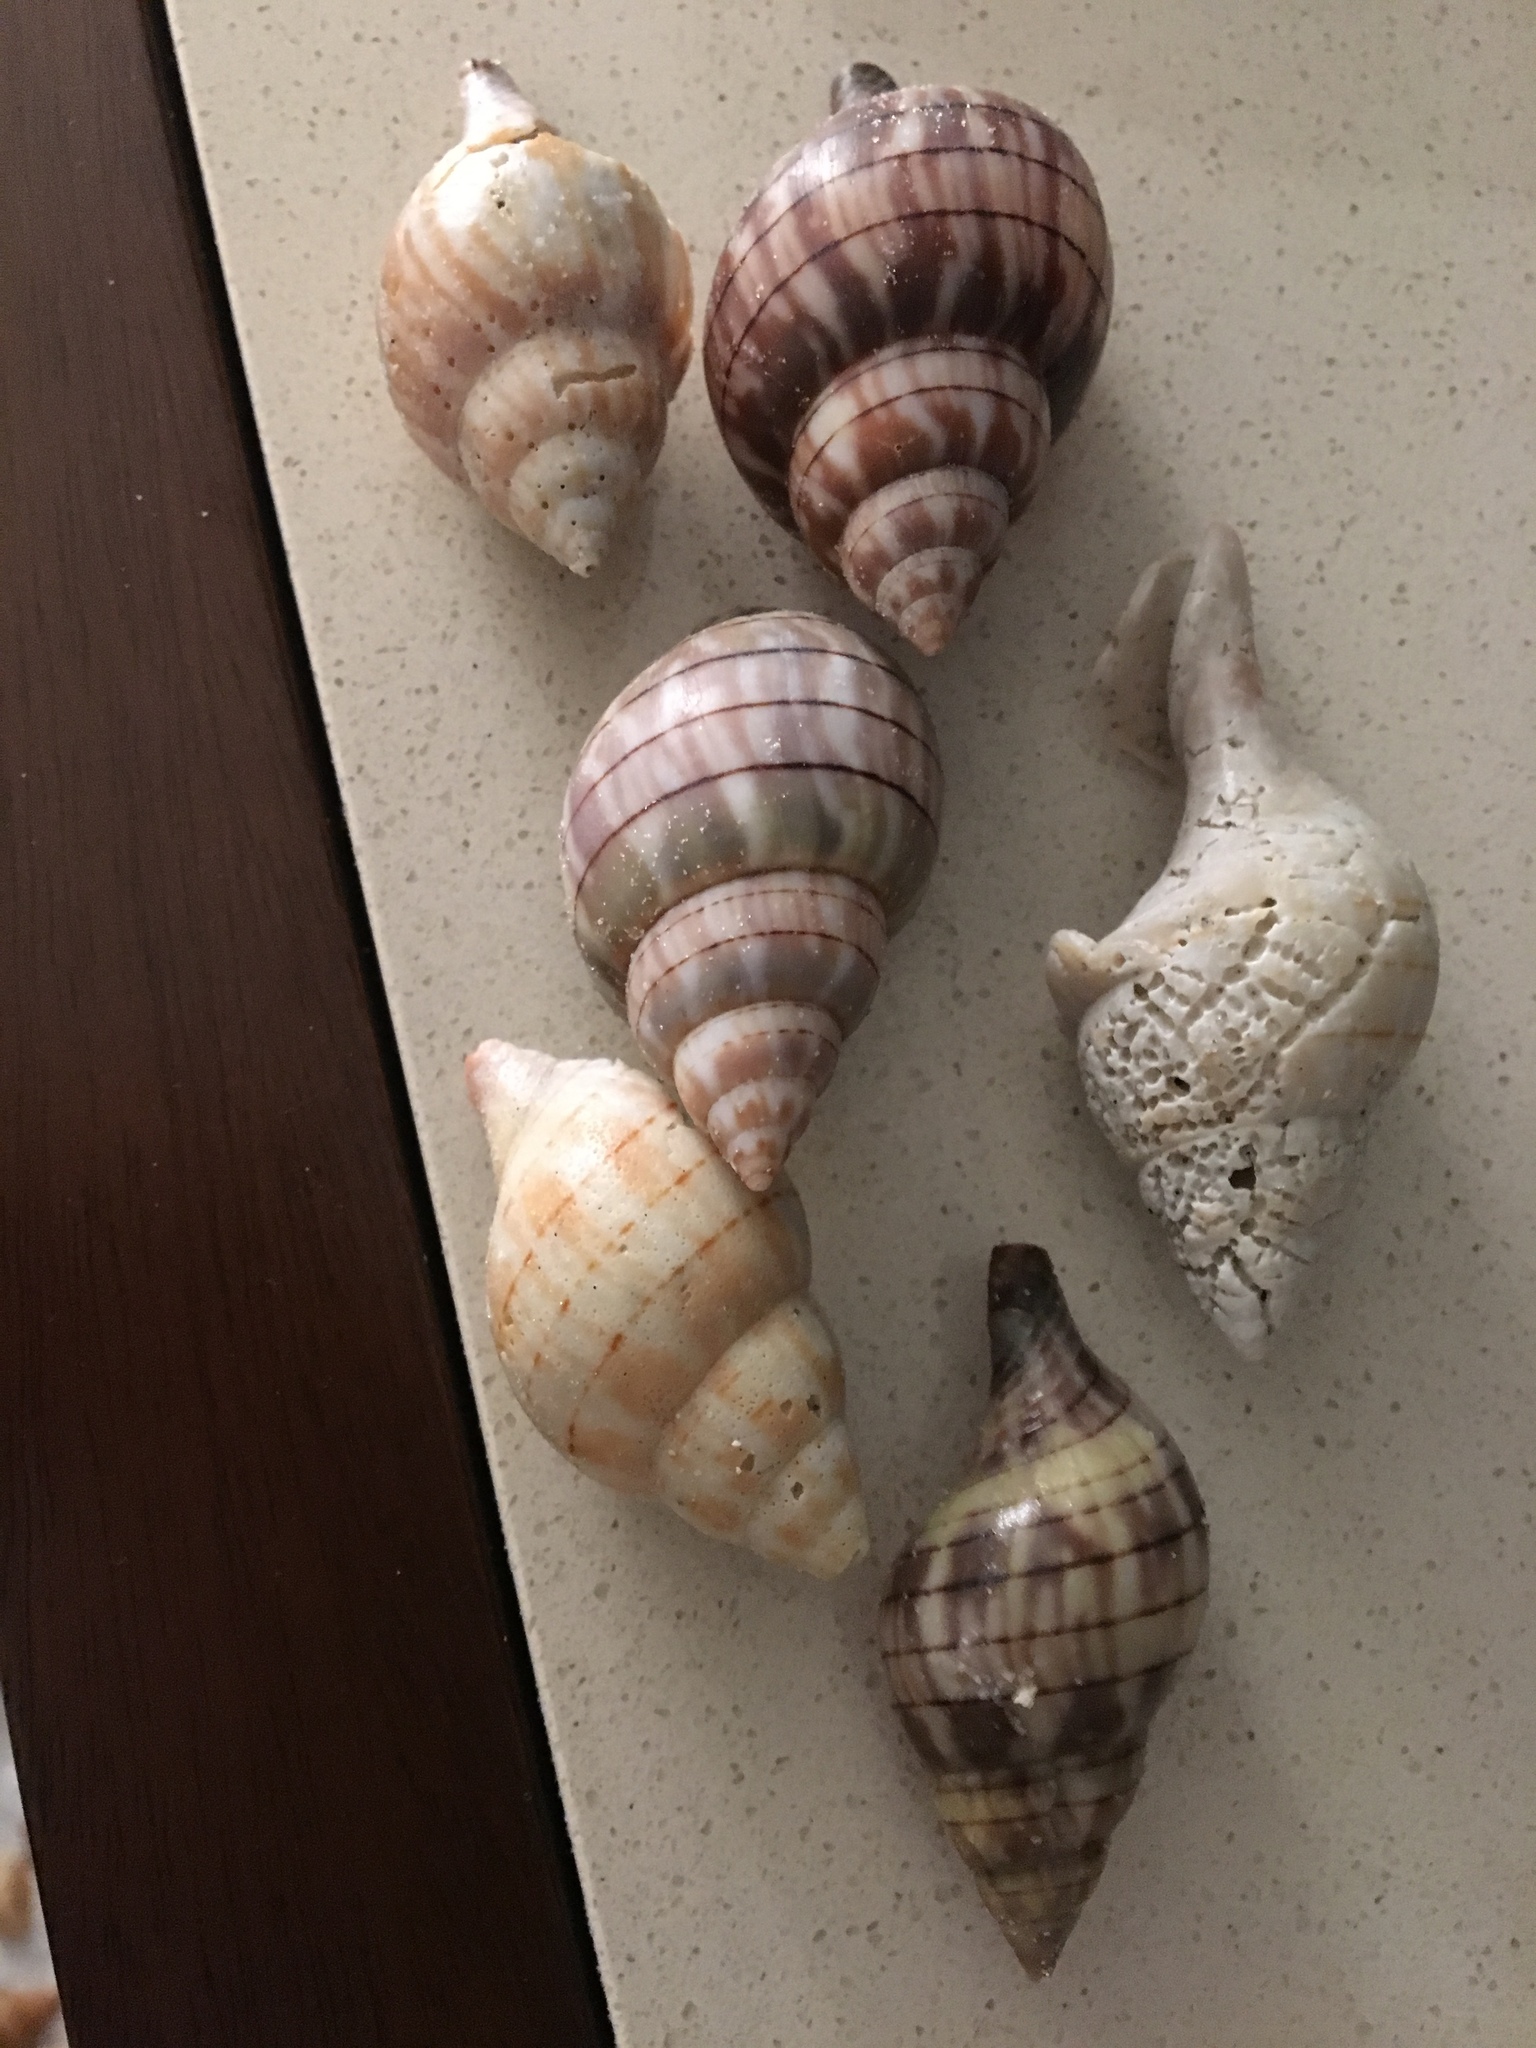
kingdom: Animalia
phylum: Mollusca
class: Gastropoda
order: Neogastropoda
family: Fasciolariidae
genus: Cinctura
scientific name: Cinctura hunteria
